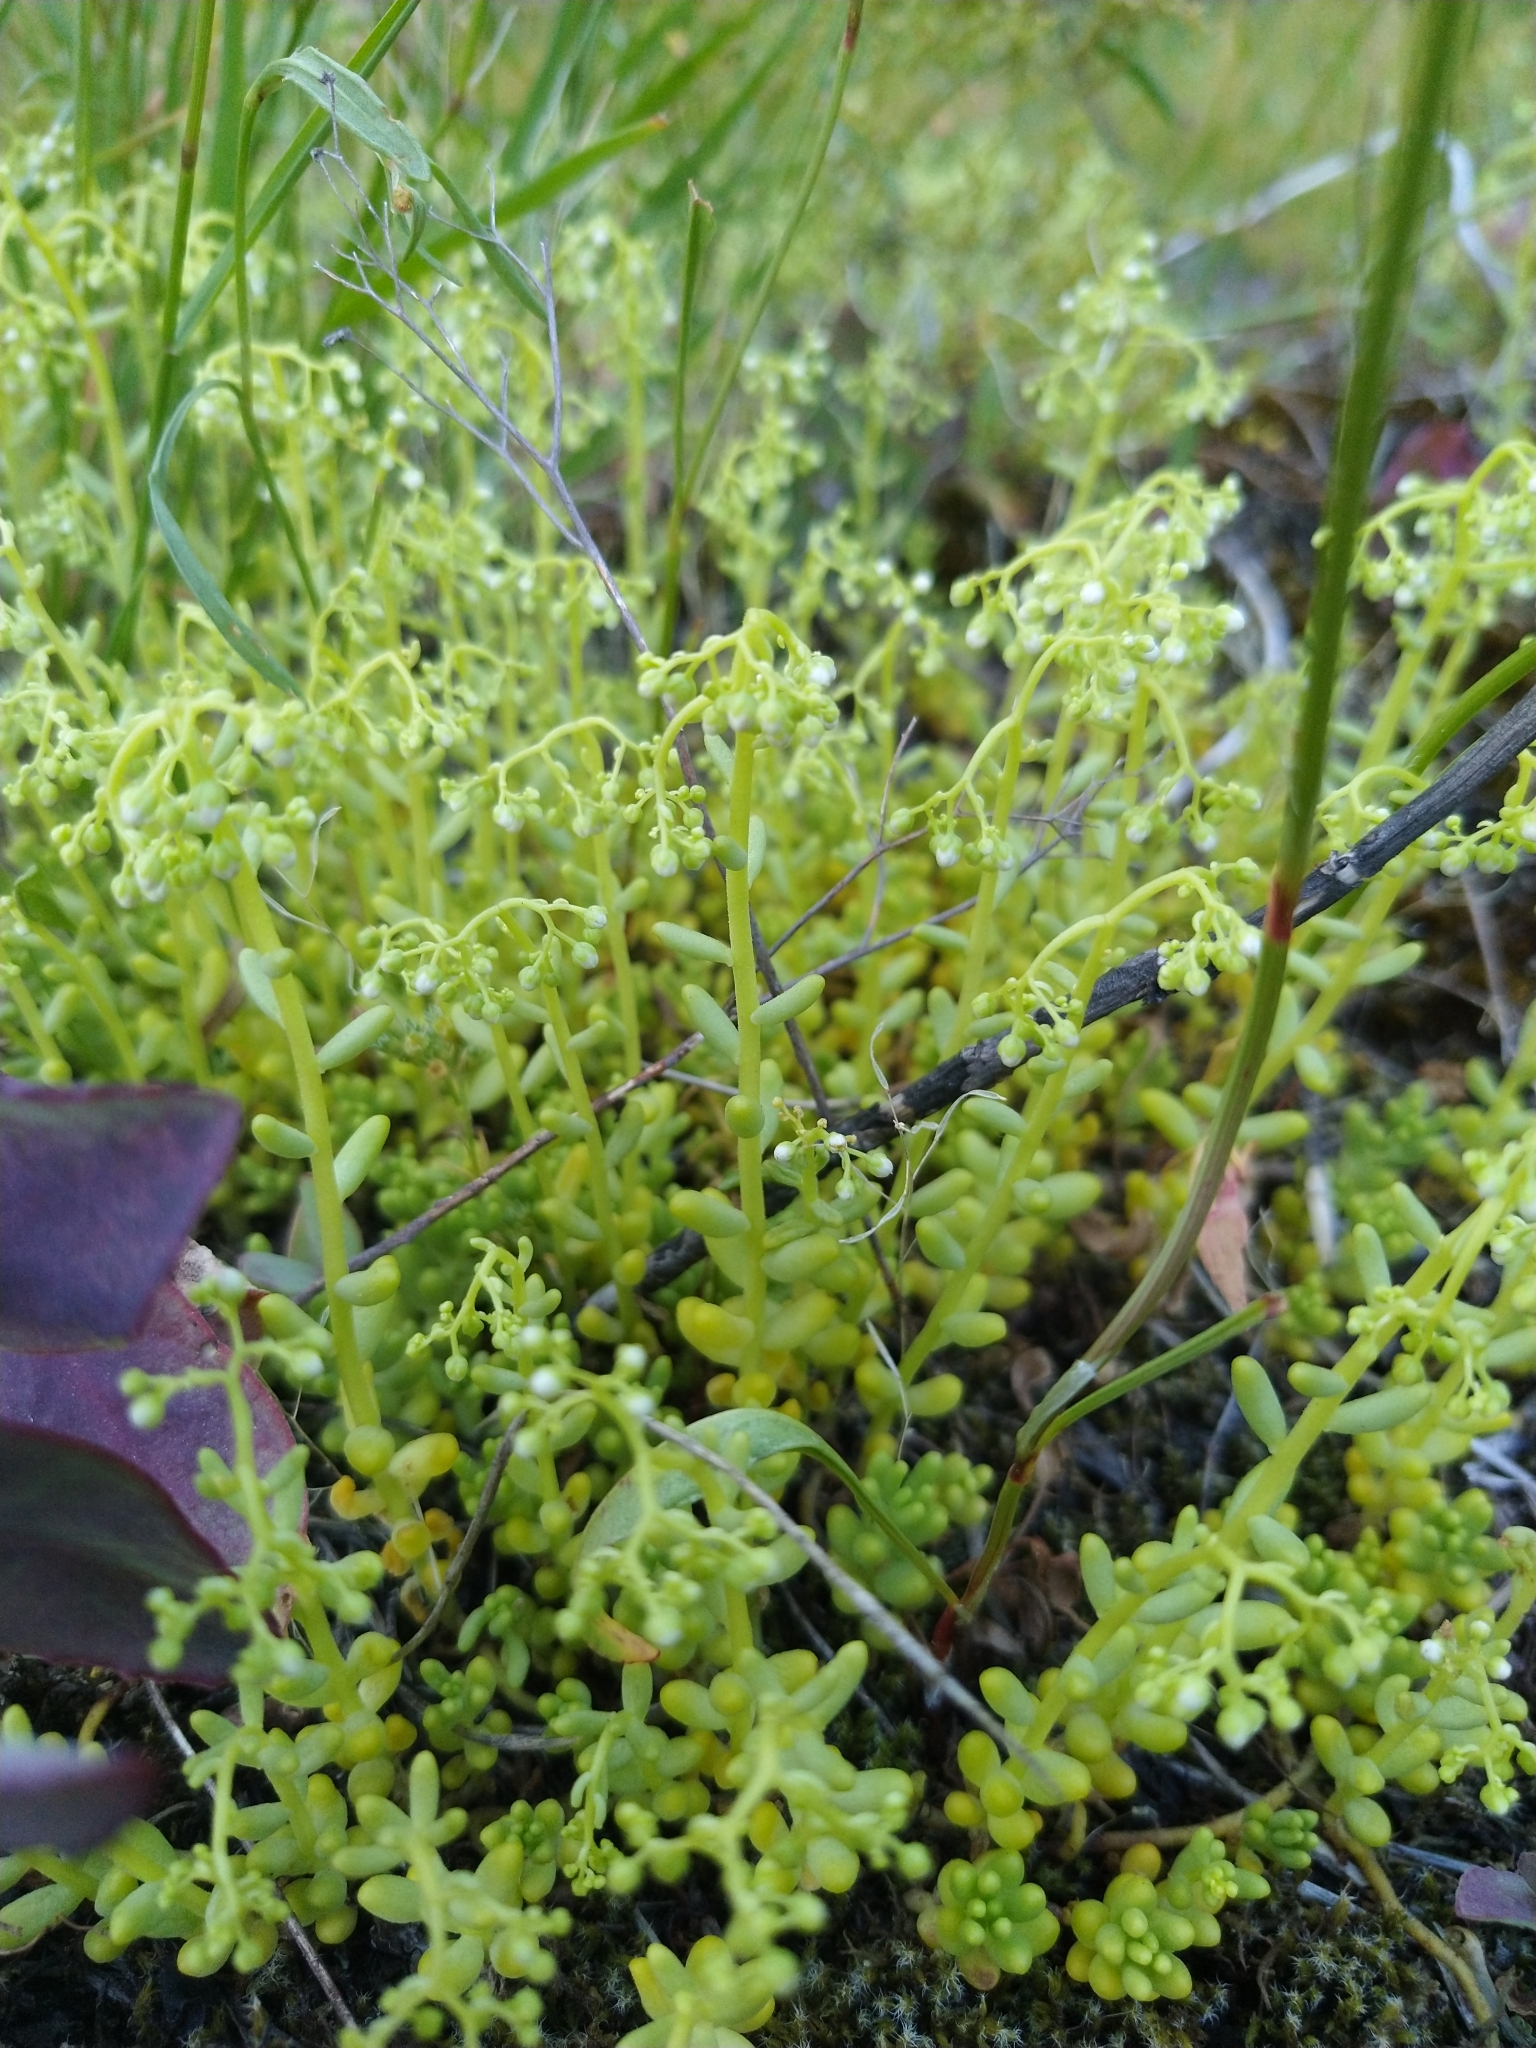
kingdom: Plantae
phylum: Tracheophyta
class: Magnoliopsida
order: Saxifragales
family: Crassulaceae
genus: Sedum
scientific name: Sedum album
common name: White stonecrop
